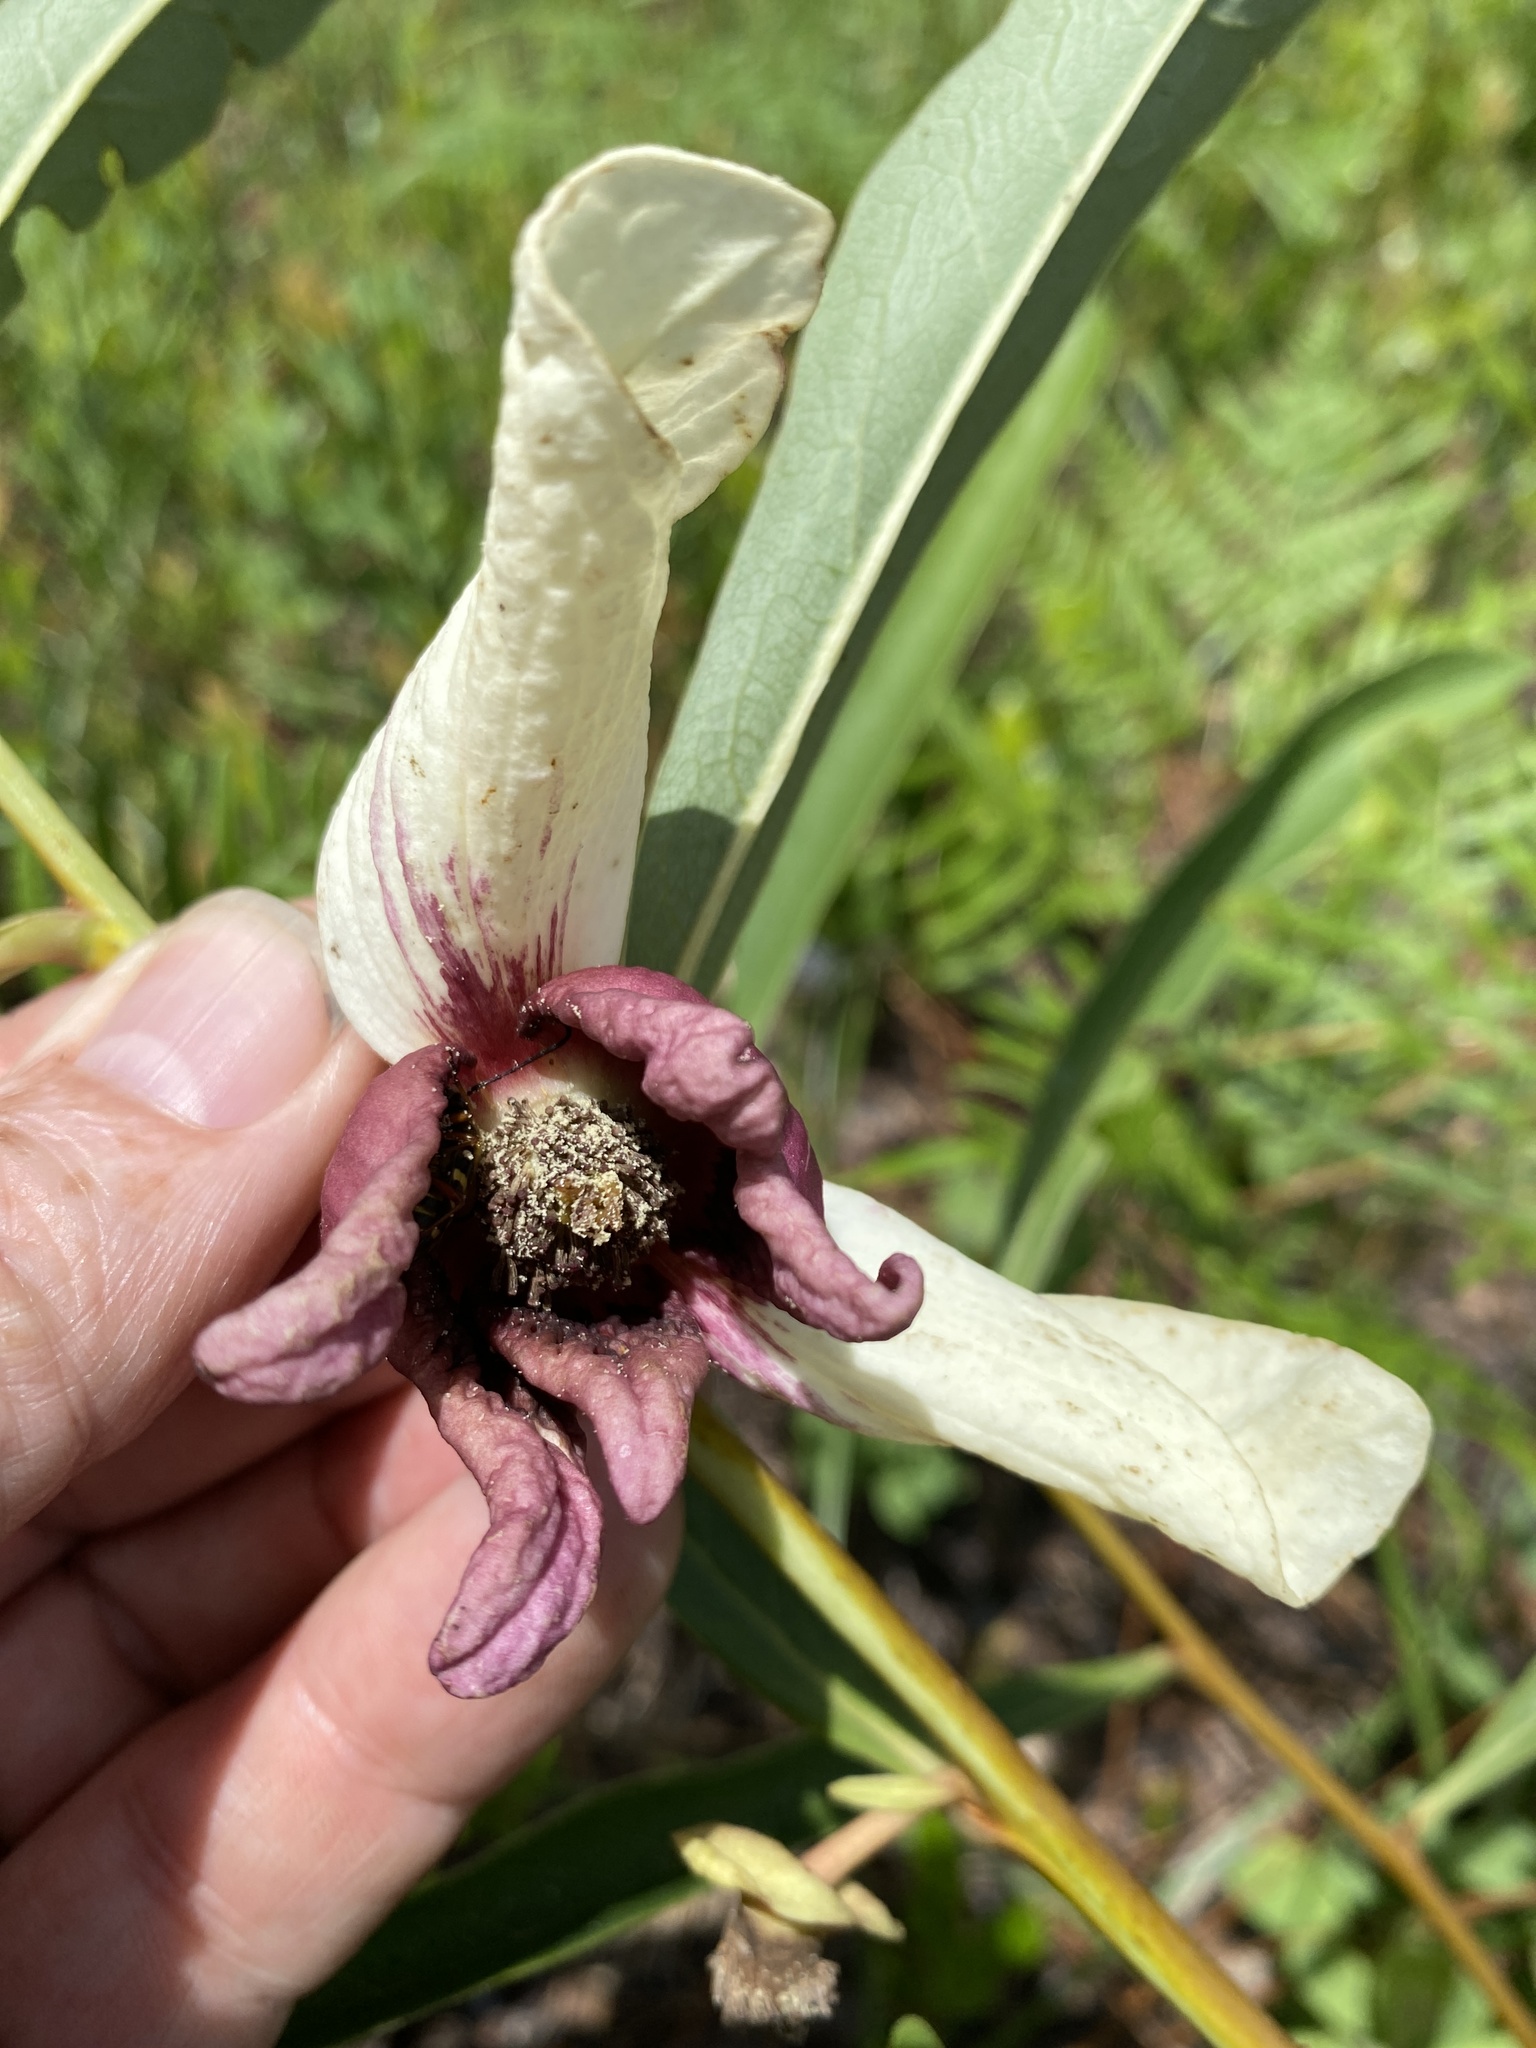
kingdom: Plantae
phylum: Tracheophyta
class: Magnoliopsida
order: Magnoliales
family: Annonaceae
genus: Asimina
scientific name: Asimina longifolia
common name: Polecatbush
